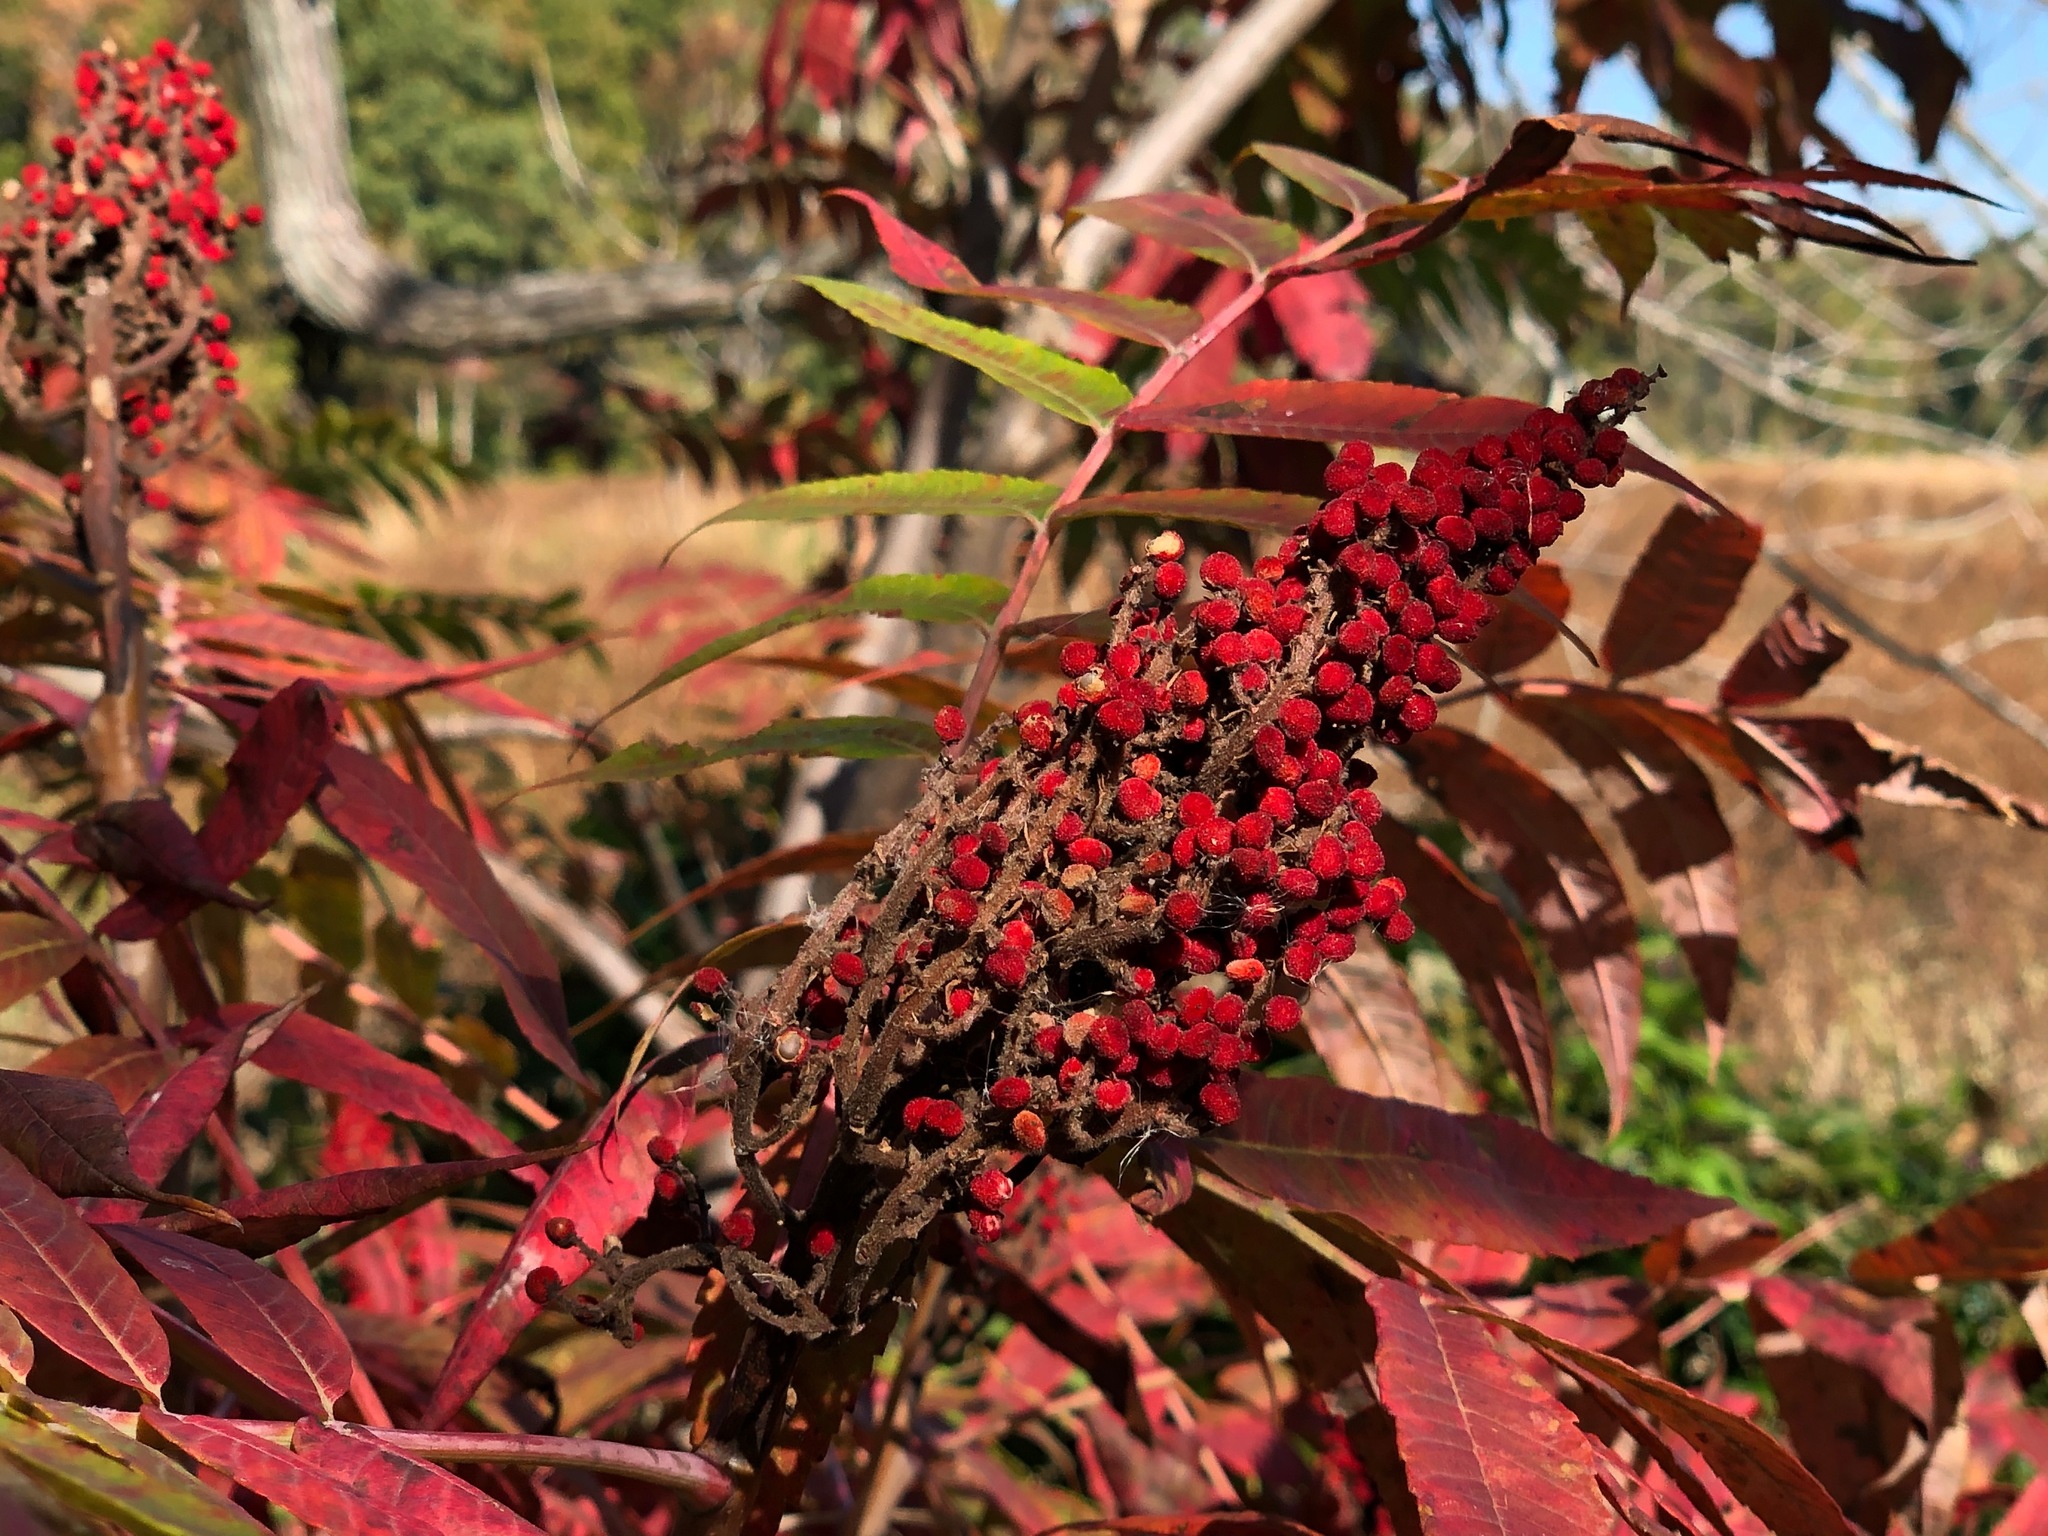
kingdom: Plantae
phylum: Tracheophyta
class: Magnoliopsida
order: Sapindales
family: Anacardiaceae
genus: Rhus
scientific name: Rhus glabra
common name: Scarlet sumac
